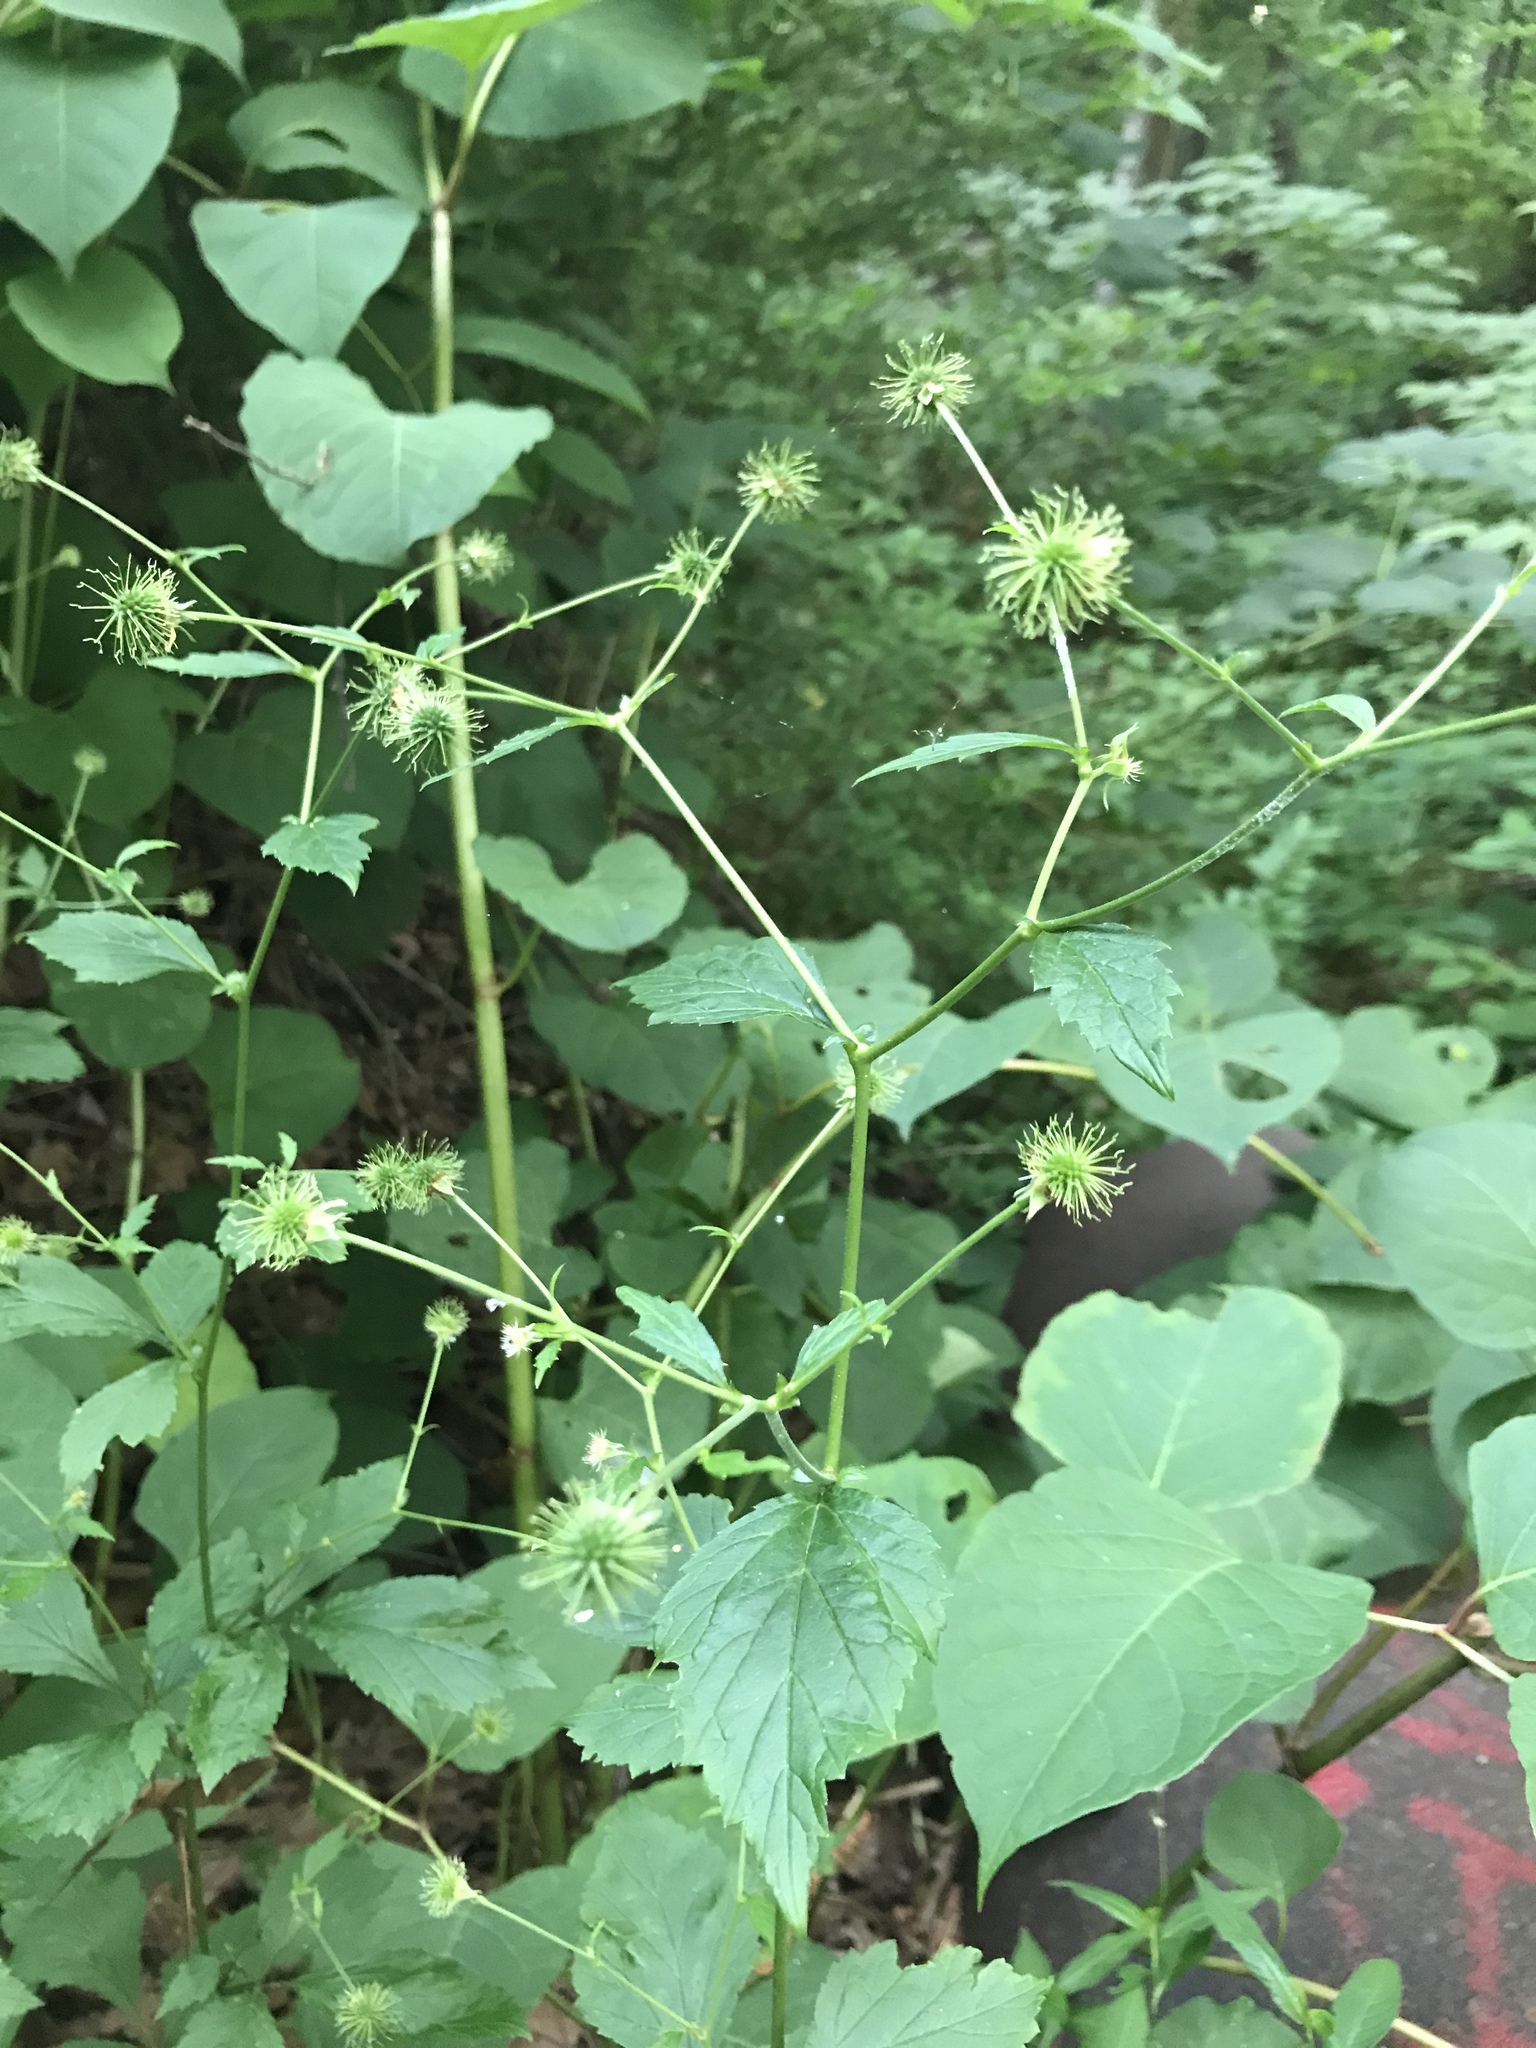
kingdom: Plantae
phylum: Tracheophyta
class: Magnoliopsida
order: Rosales
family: Rosaceae
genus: Geum
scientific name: Geum canadense
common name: White avens
